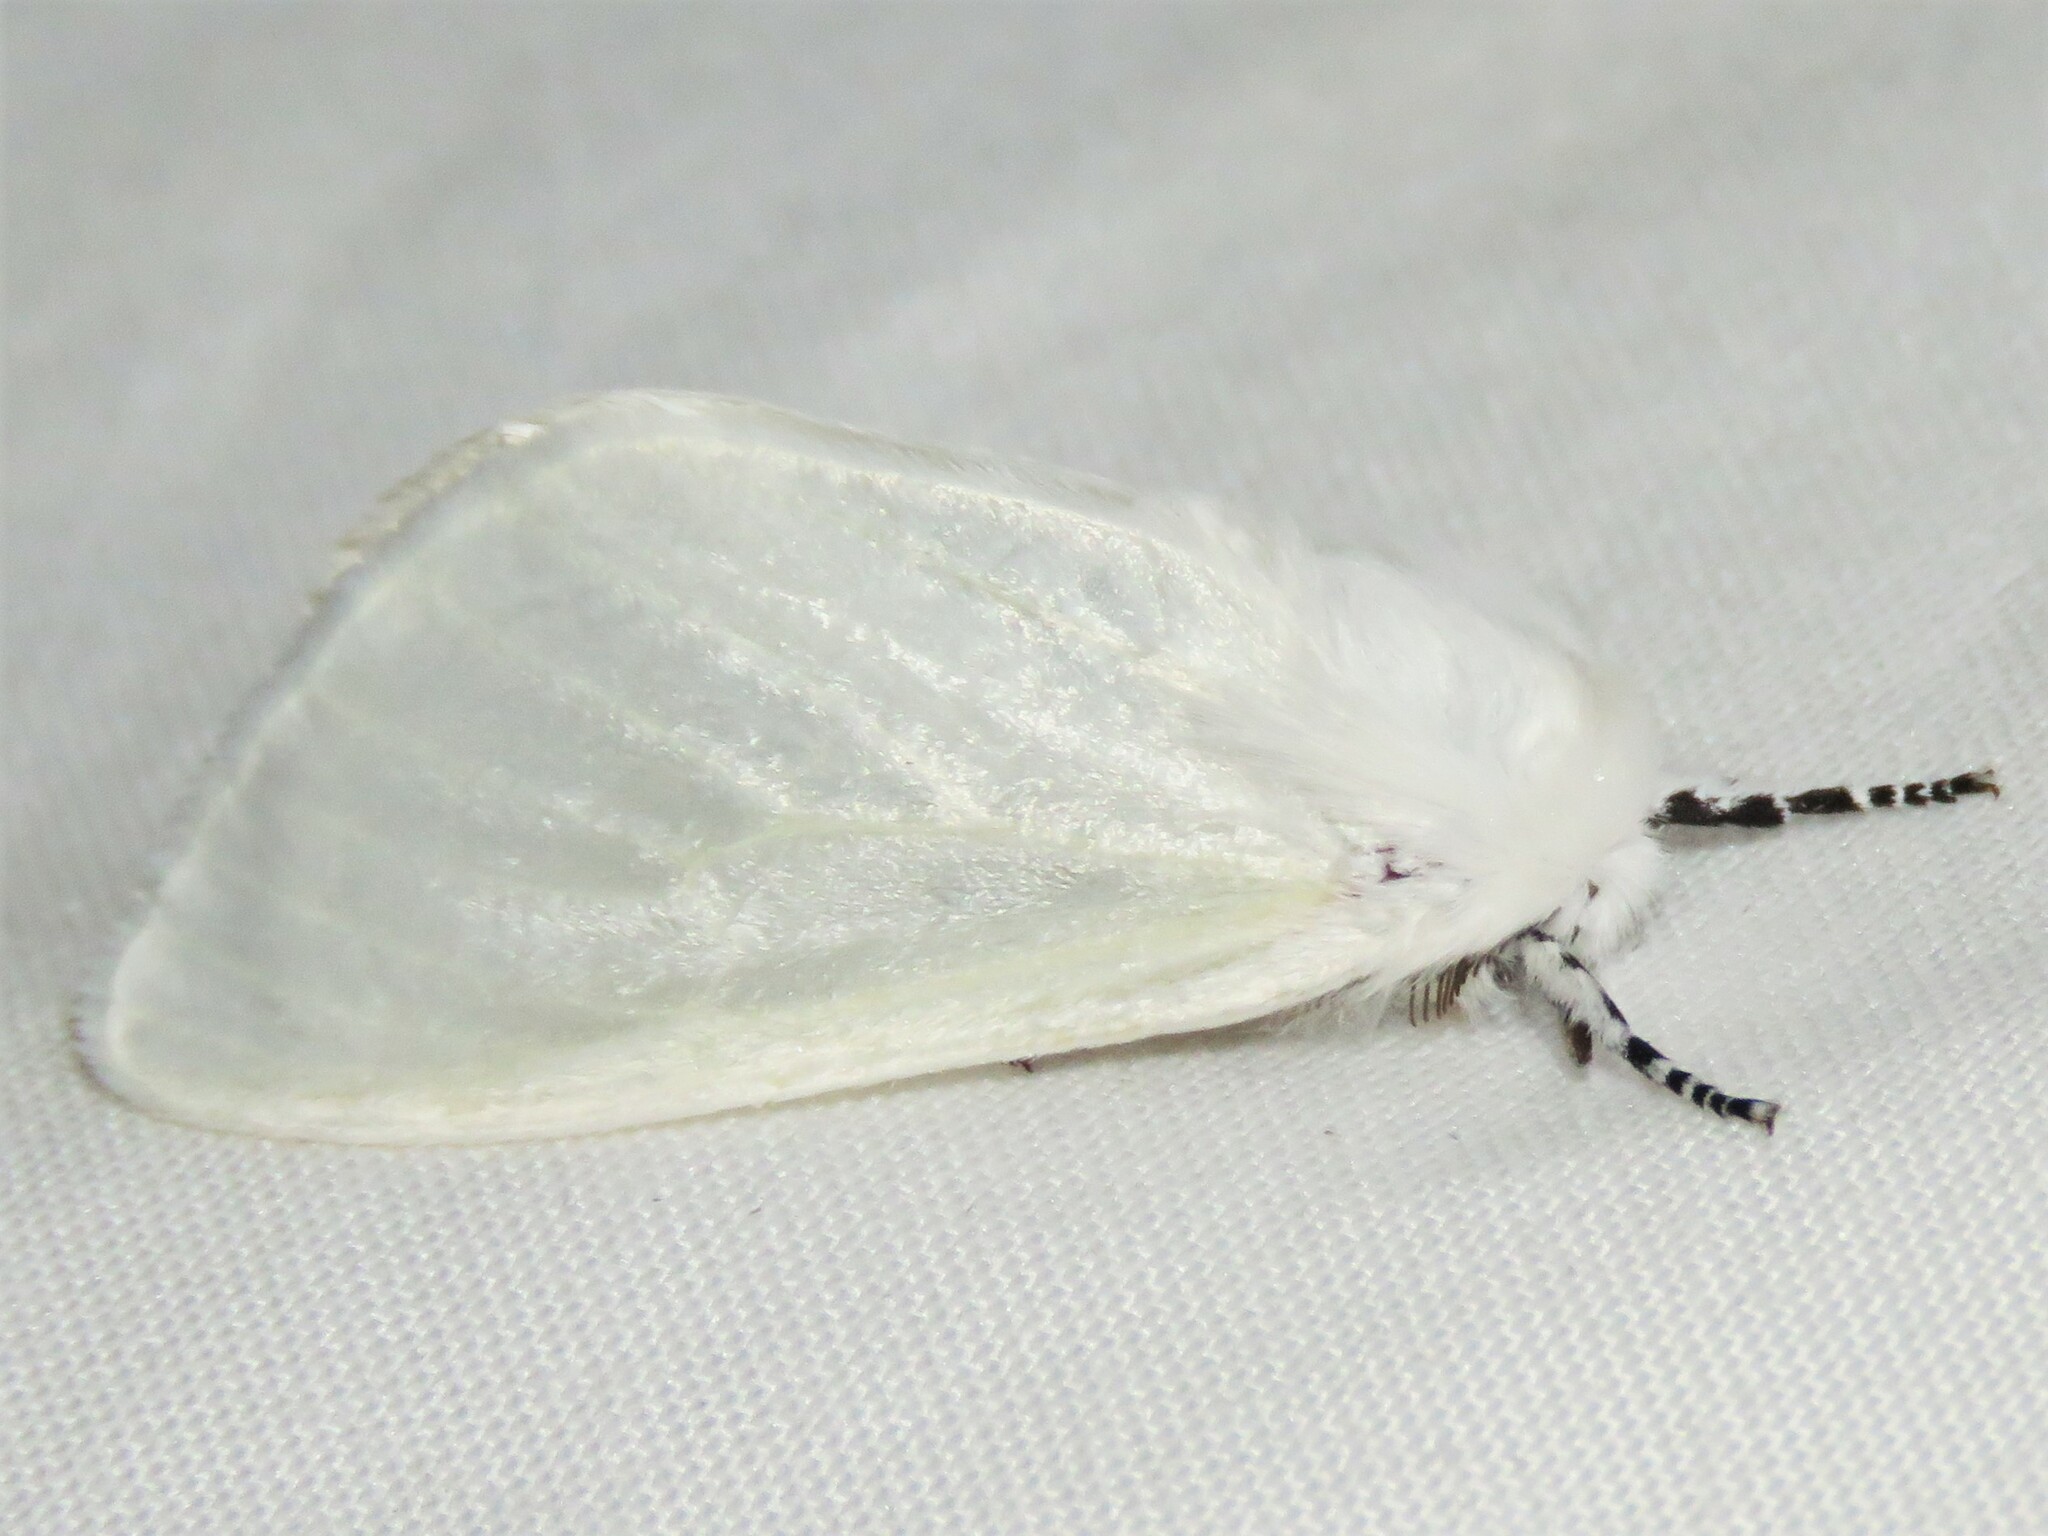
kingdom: Animalia
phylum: Arthropoda
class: Insecta
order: Lepidoptera
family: Erebidae
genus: Leucoma
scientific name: Leucoma salicis
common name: White satin moth
